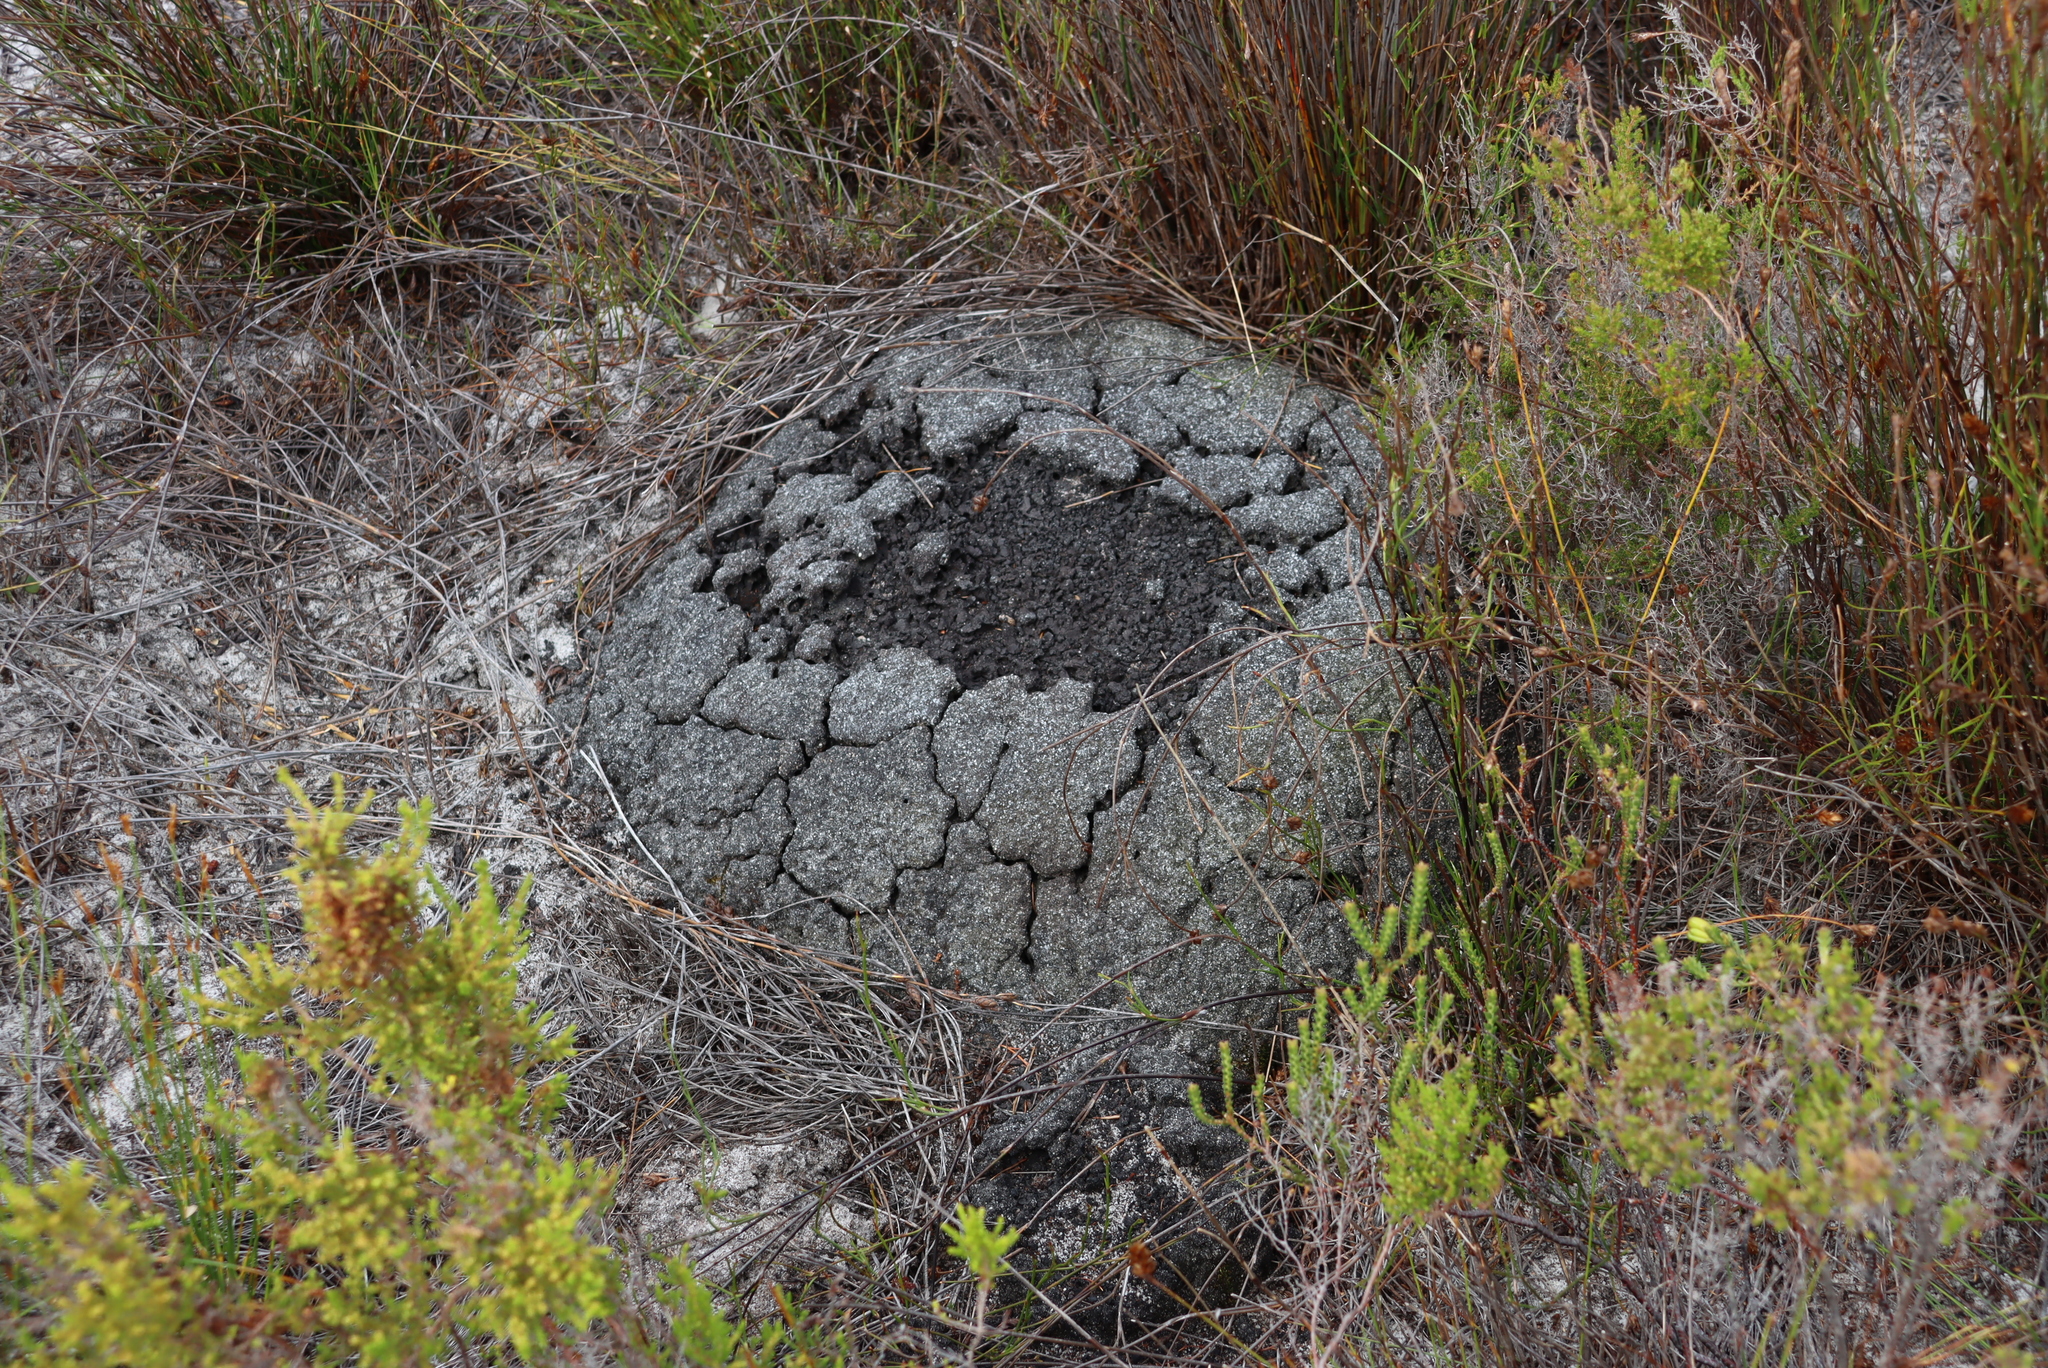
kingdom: Animalia
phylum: Arthropoda
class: Insecta
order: Blattodea
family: Termitidae
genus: Amitermes
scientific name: Amitermes hastatus
